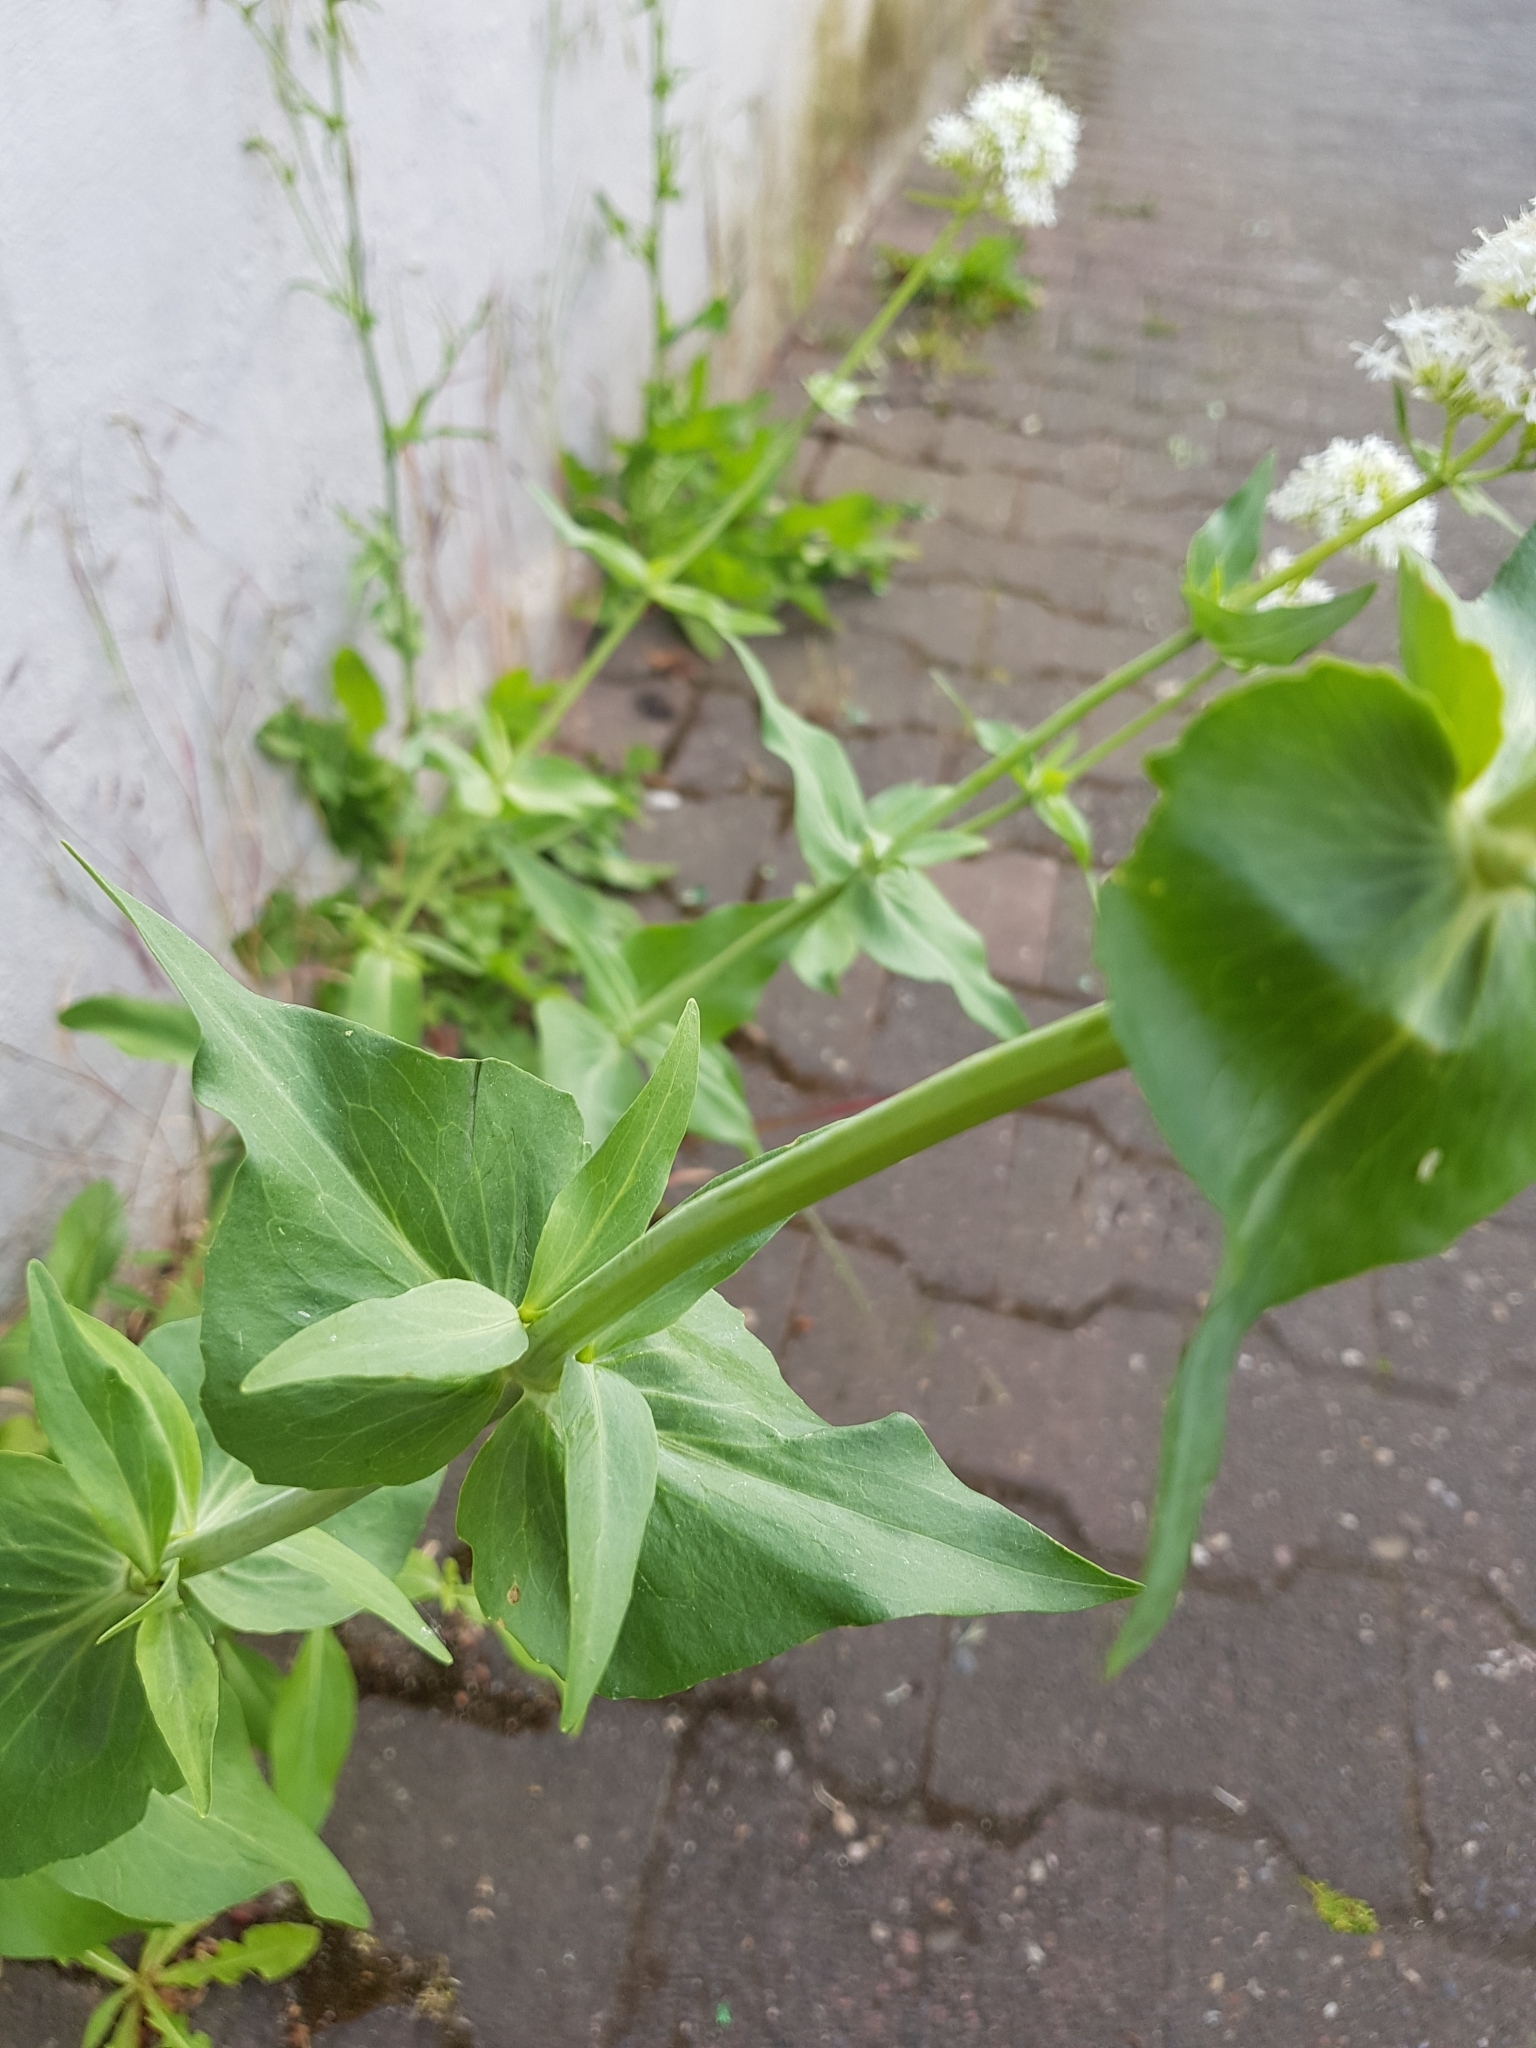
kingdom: Plantae
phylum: Tracheophyta
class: Magnoliopsida
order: Dipsacales
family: Caprifoliaceae
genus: Centranthus
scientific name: Centranthus ruber
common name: Red valerian
